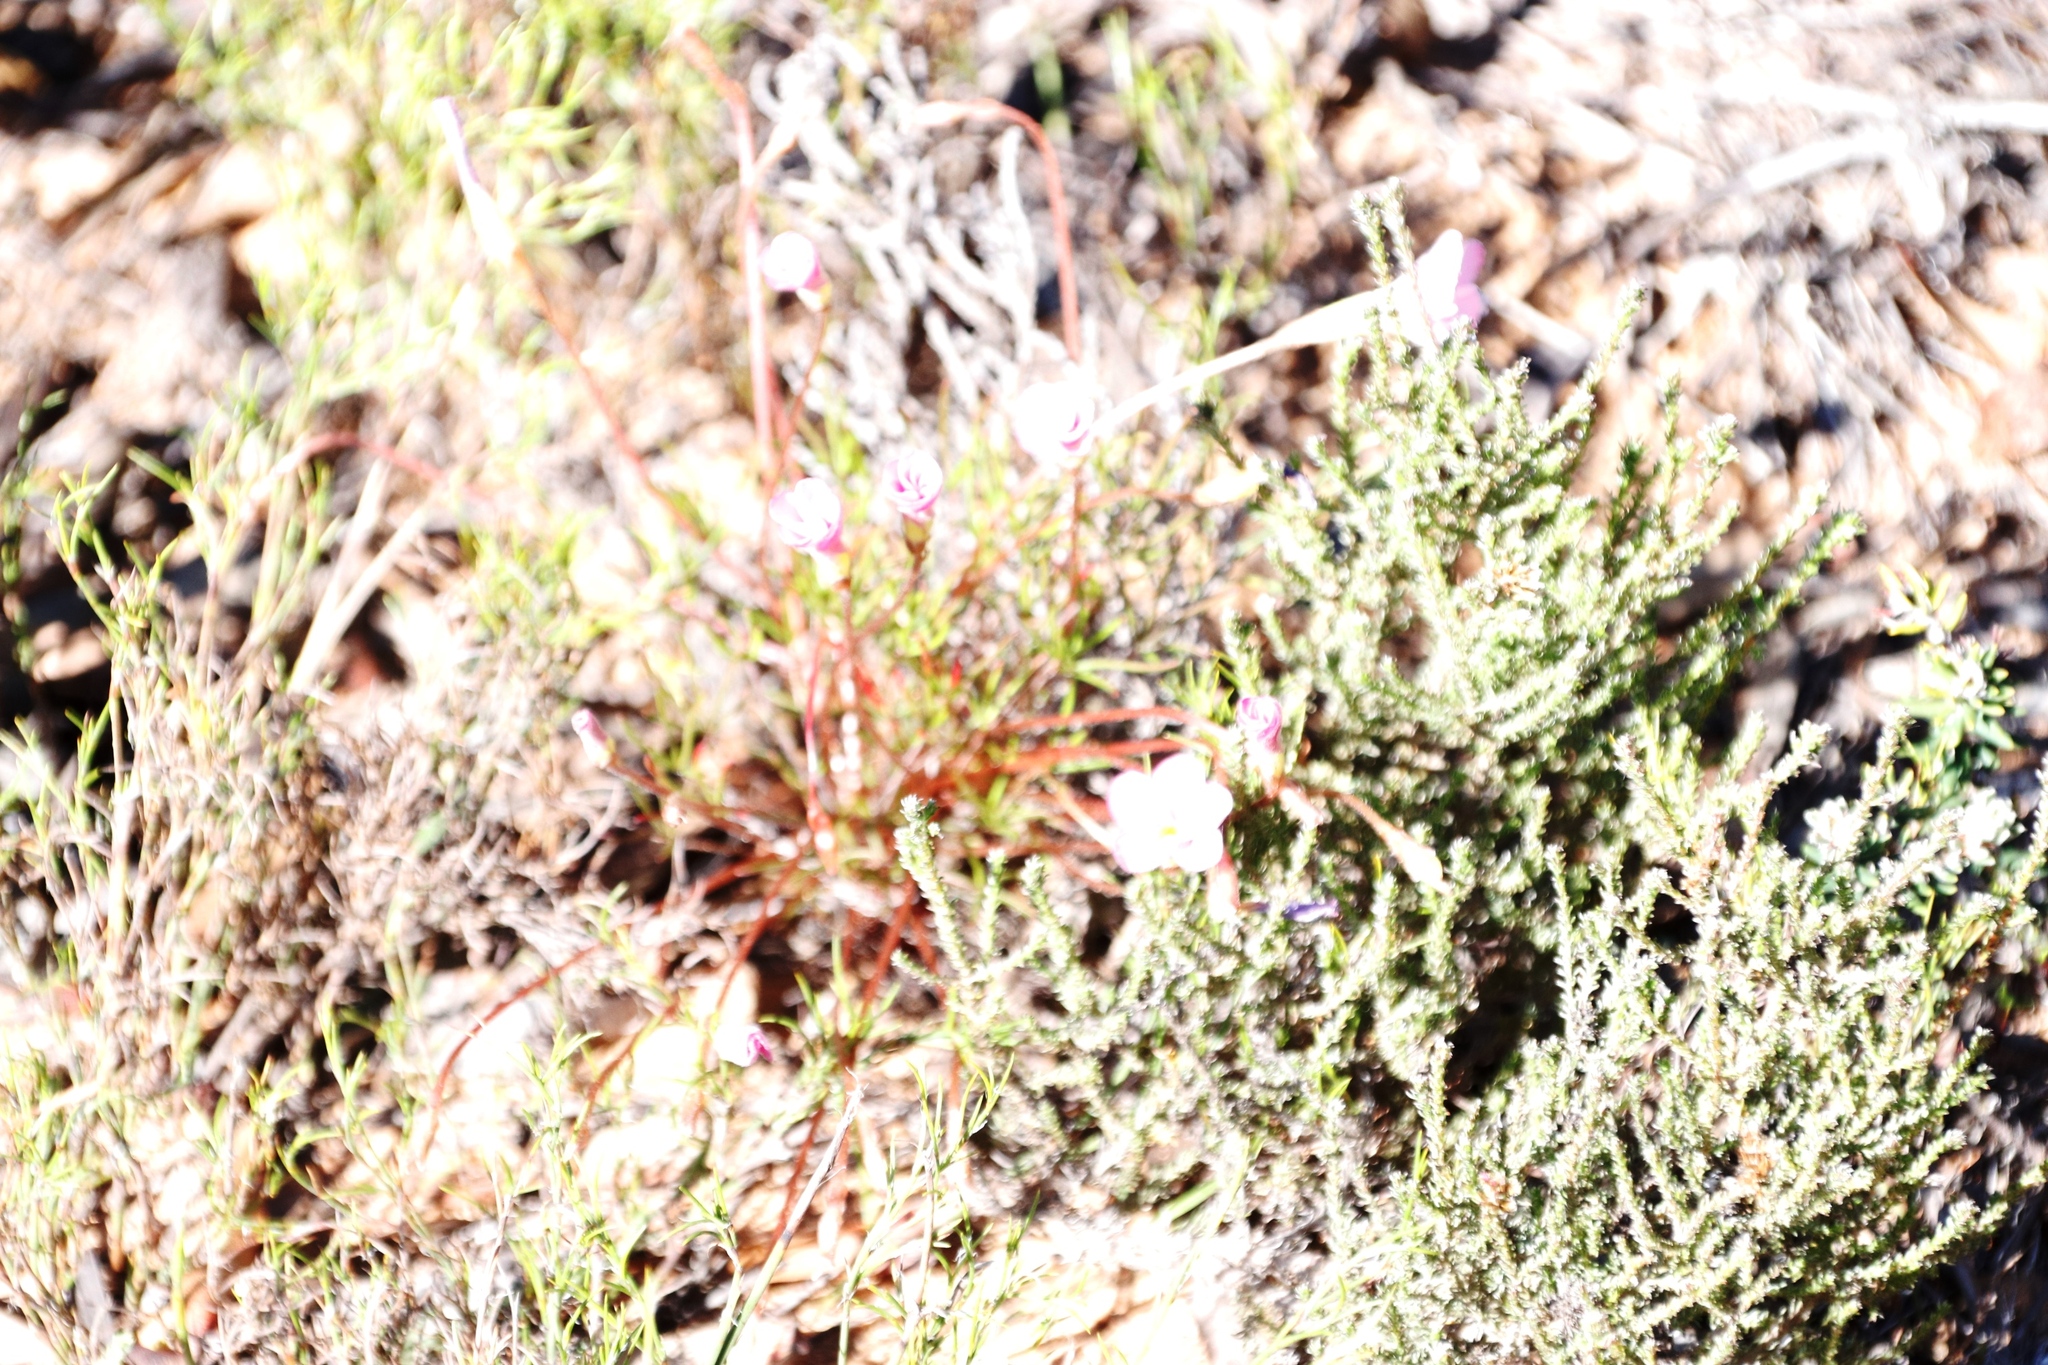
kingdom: Plantae
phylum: Tracheophyta
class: Magnoliopsida
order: Oxalidales
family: Oxalidaceae
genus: Oxalis
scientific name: Oxalis polyphylla
